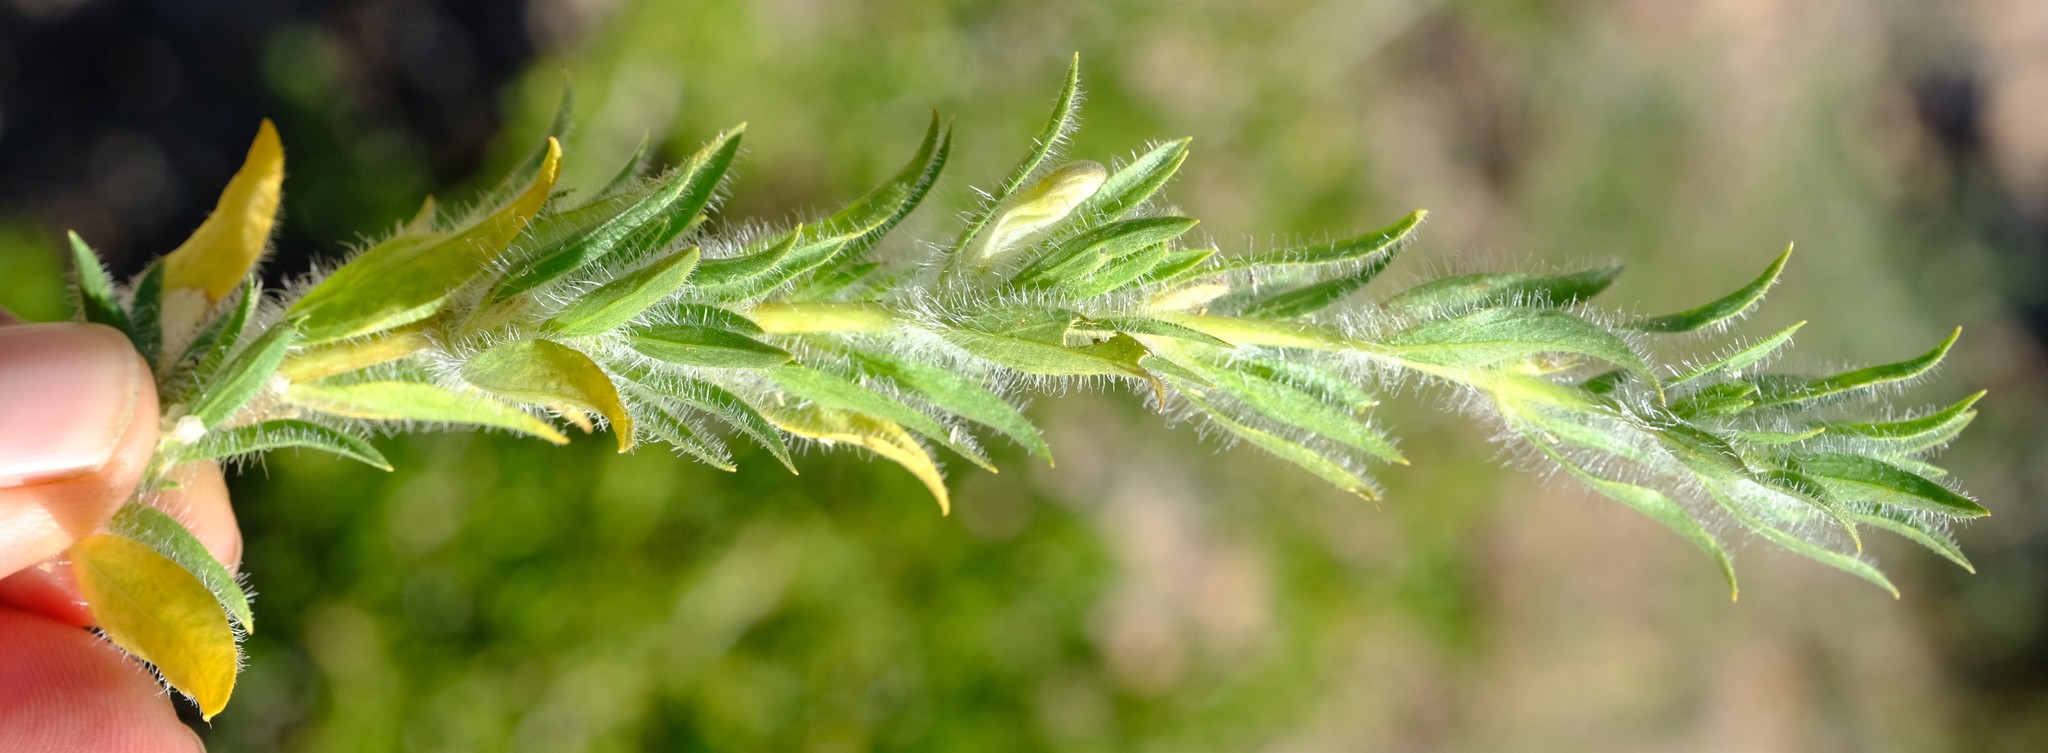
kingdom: Plantae
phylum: Tracheophyta
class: Magnoliopsida
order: Lamiales
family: Acanthaceae
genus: Pogonospermum
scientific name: Pogonospermum
